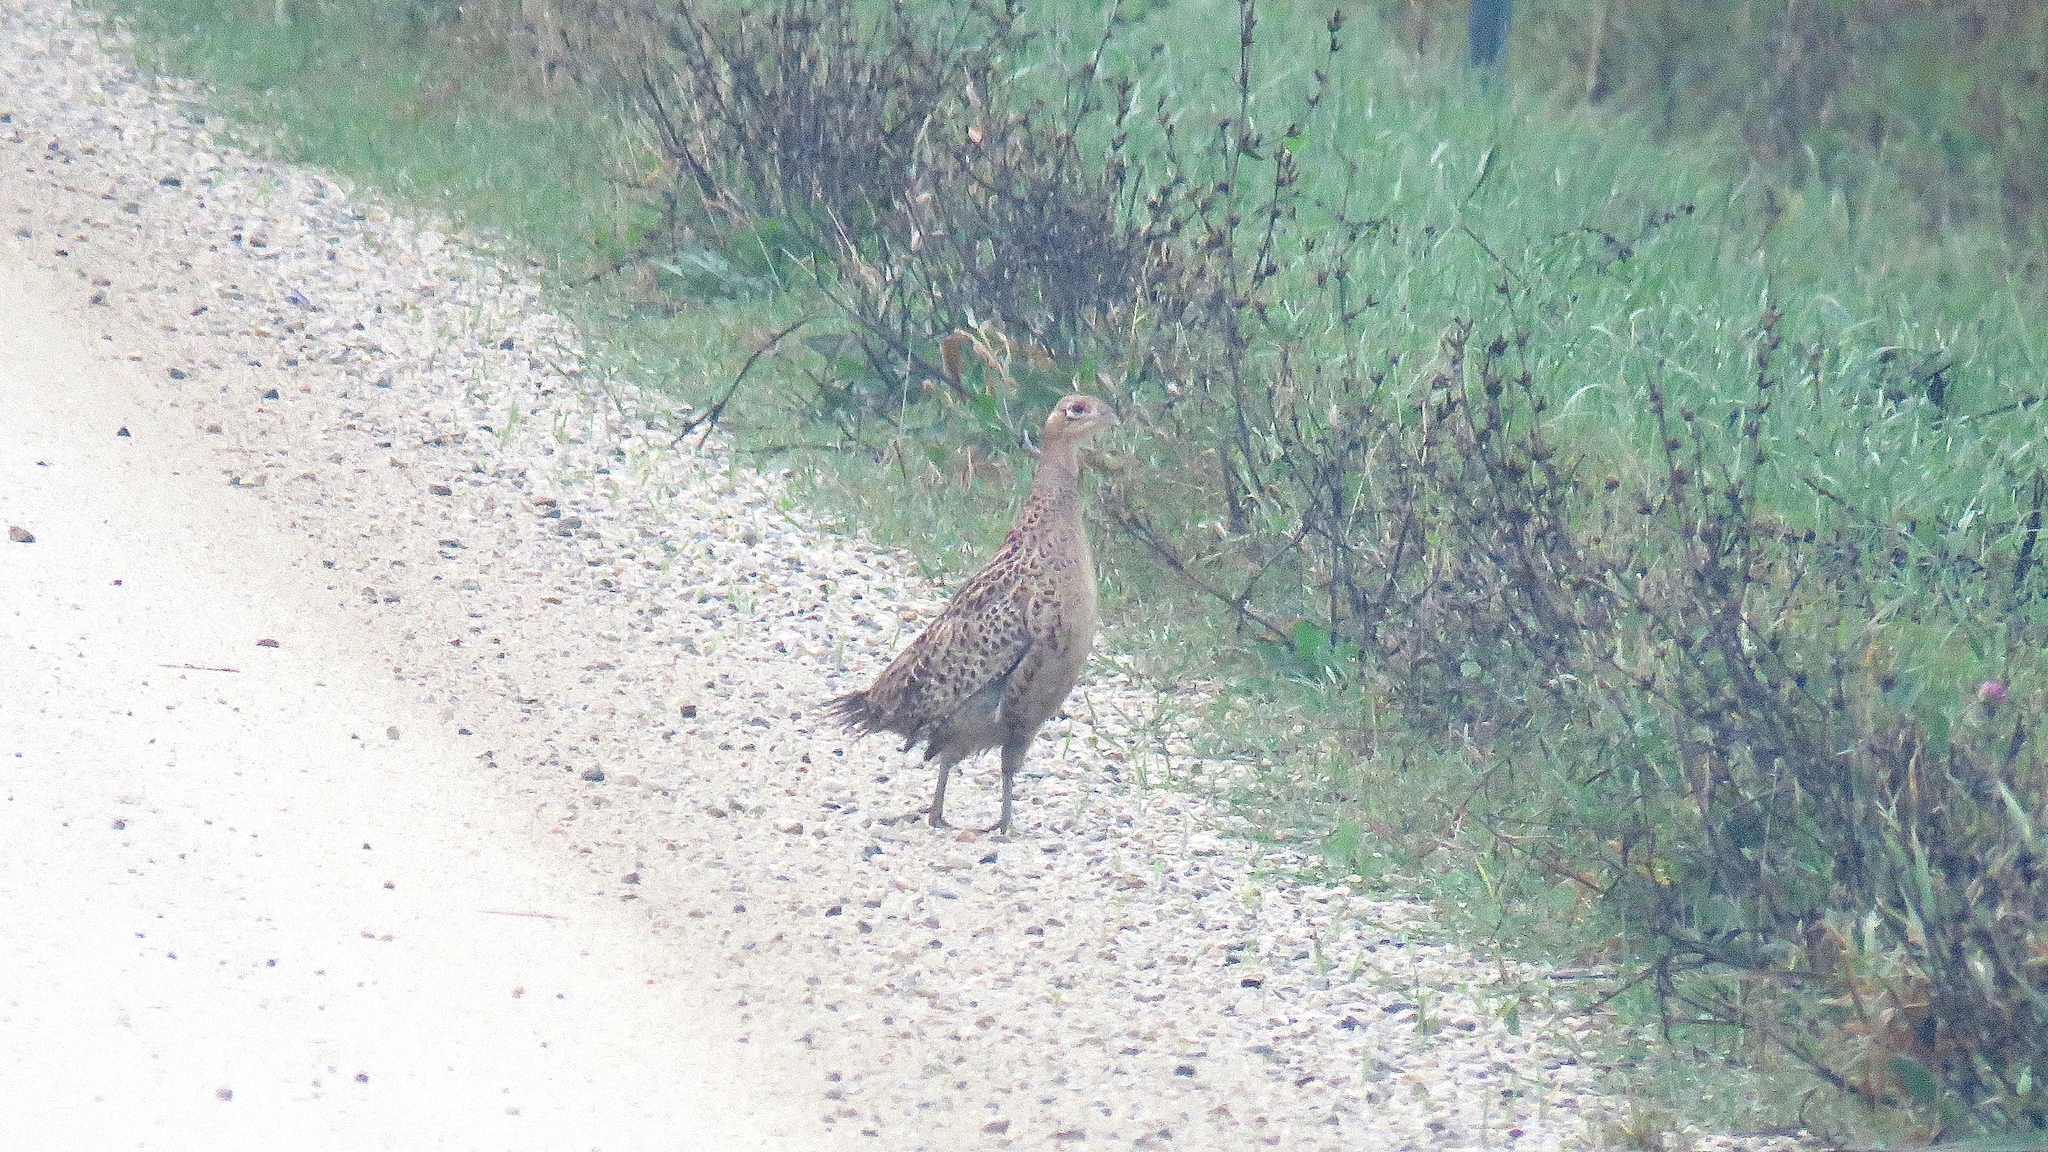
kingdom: Animalia
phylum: Chordata
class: Aves
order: Galliformes
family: Phasianidae
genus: Phasianus
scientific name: Phasianus colchicus
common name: Common pheasant
